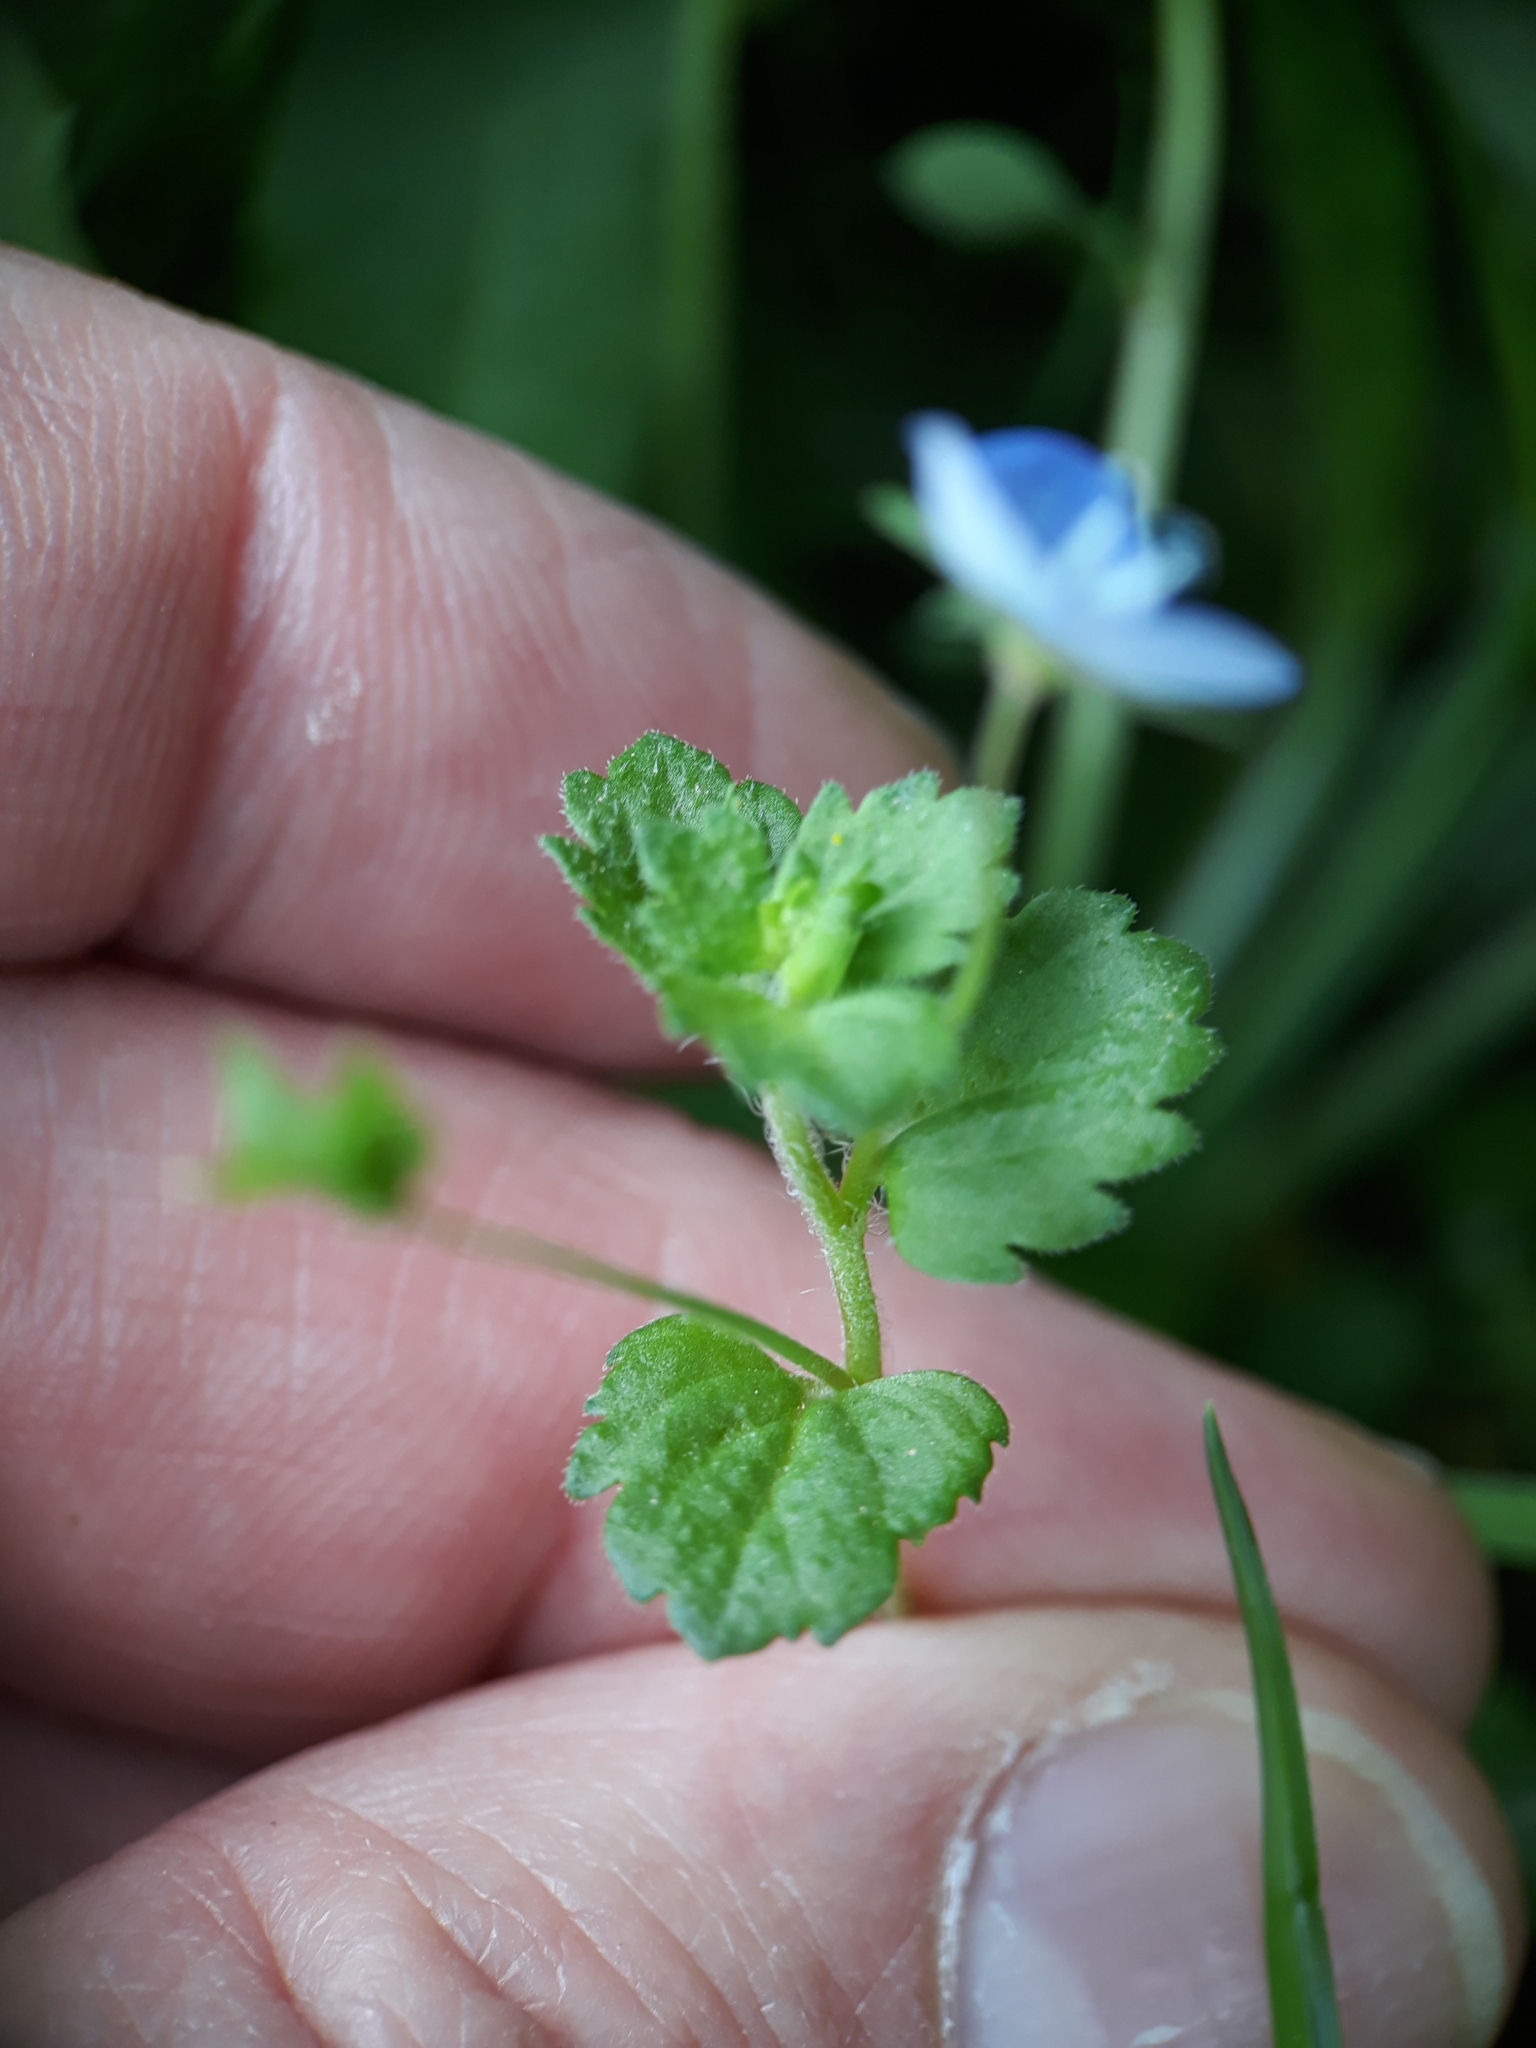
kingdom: Plantae
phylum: Tracheophyta
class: Magnoliopsida
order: Lamiales
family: Plantaginaceae
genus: Veronica
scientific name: Veronica persica
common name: Common field-speedwell
